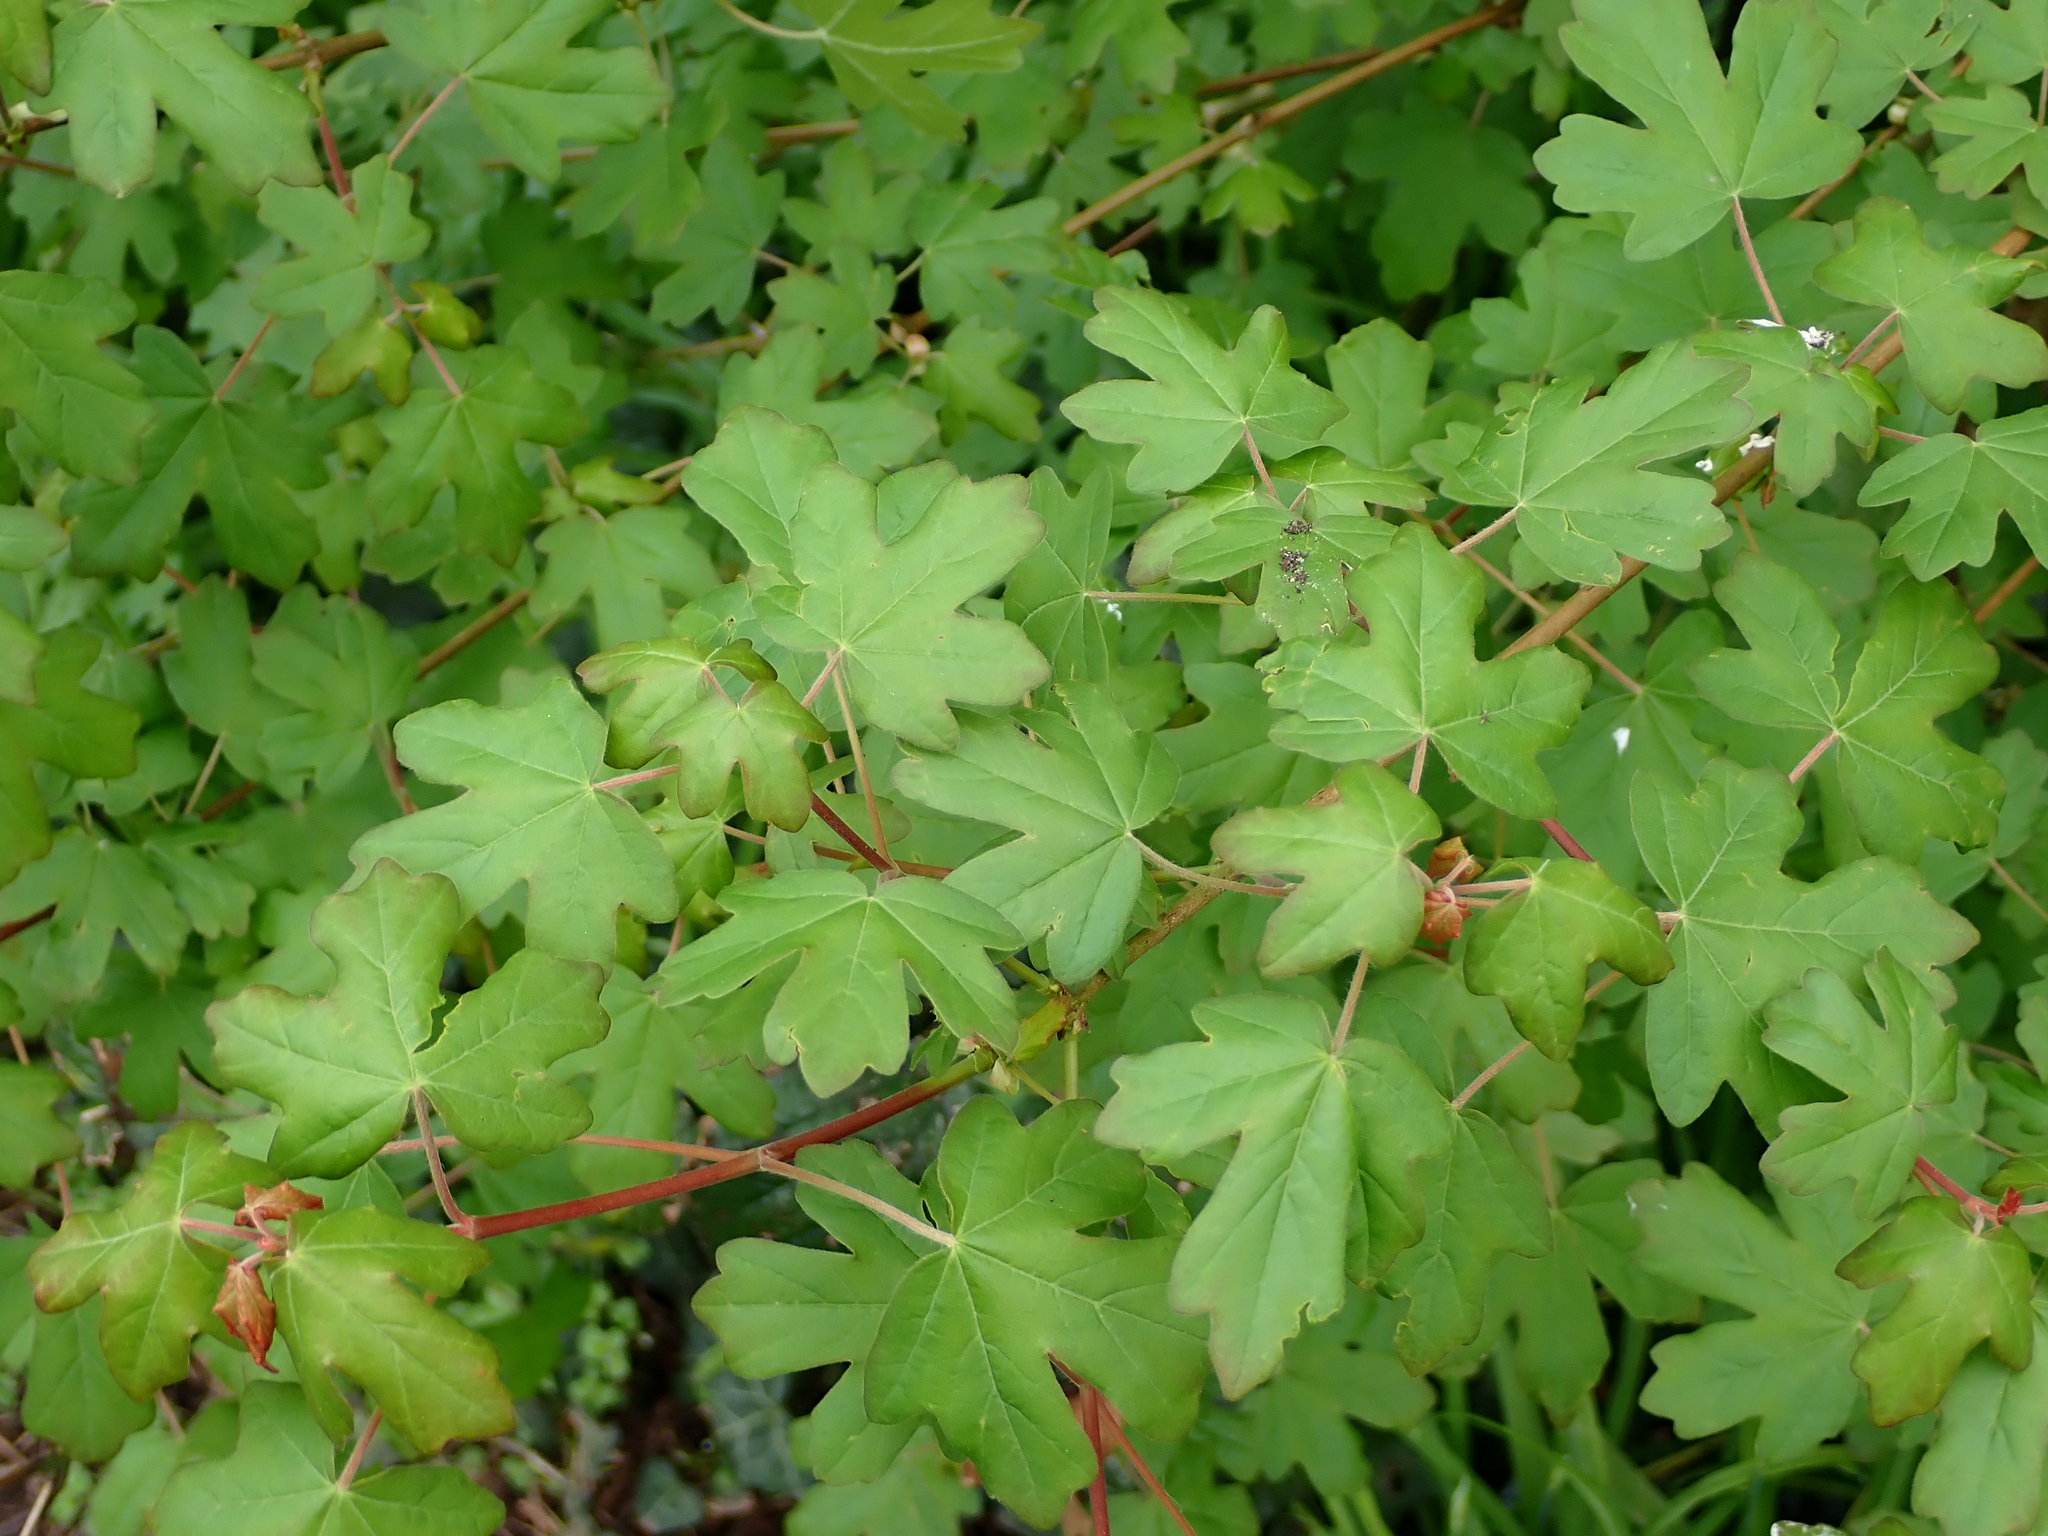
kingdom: Plantae
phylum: Tracheophyta
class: Magnoliopsida
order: Sapindales
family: Sapindaceae
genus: Acer
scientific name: Acer campestre
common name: Field maple
